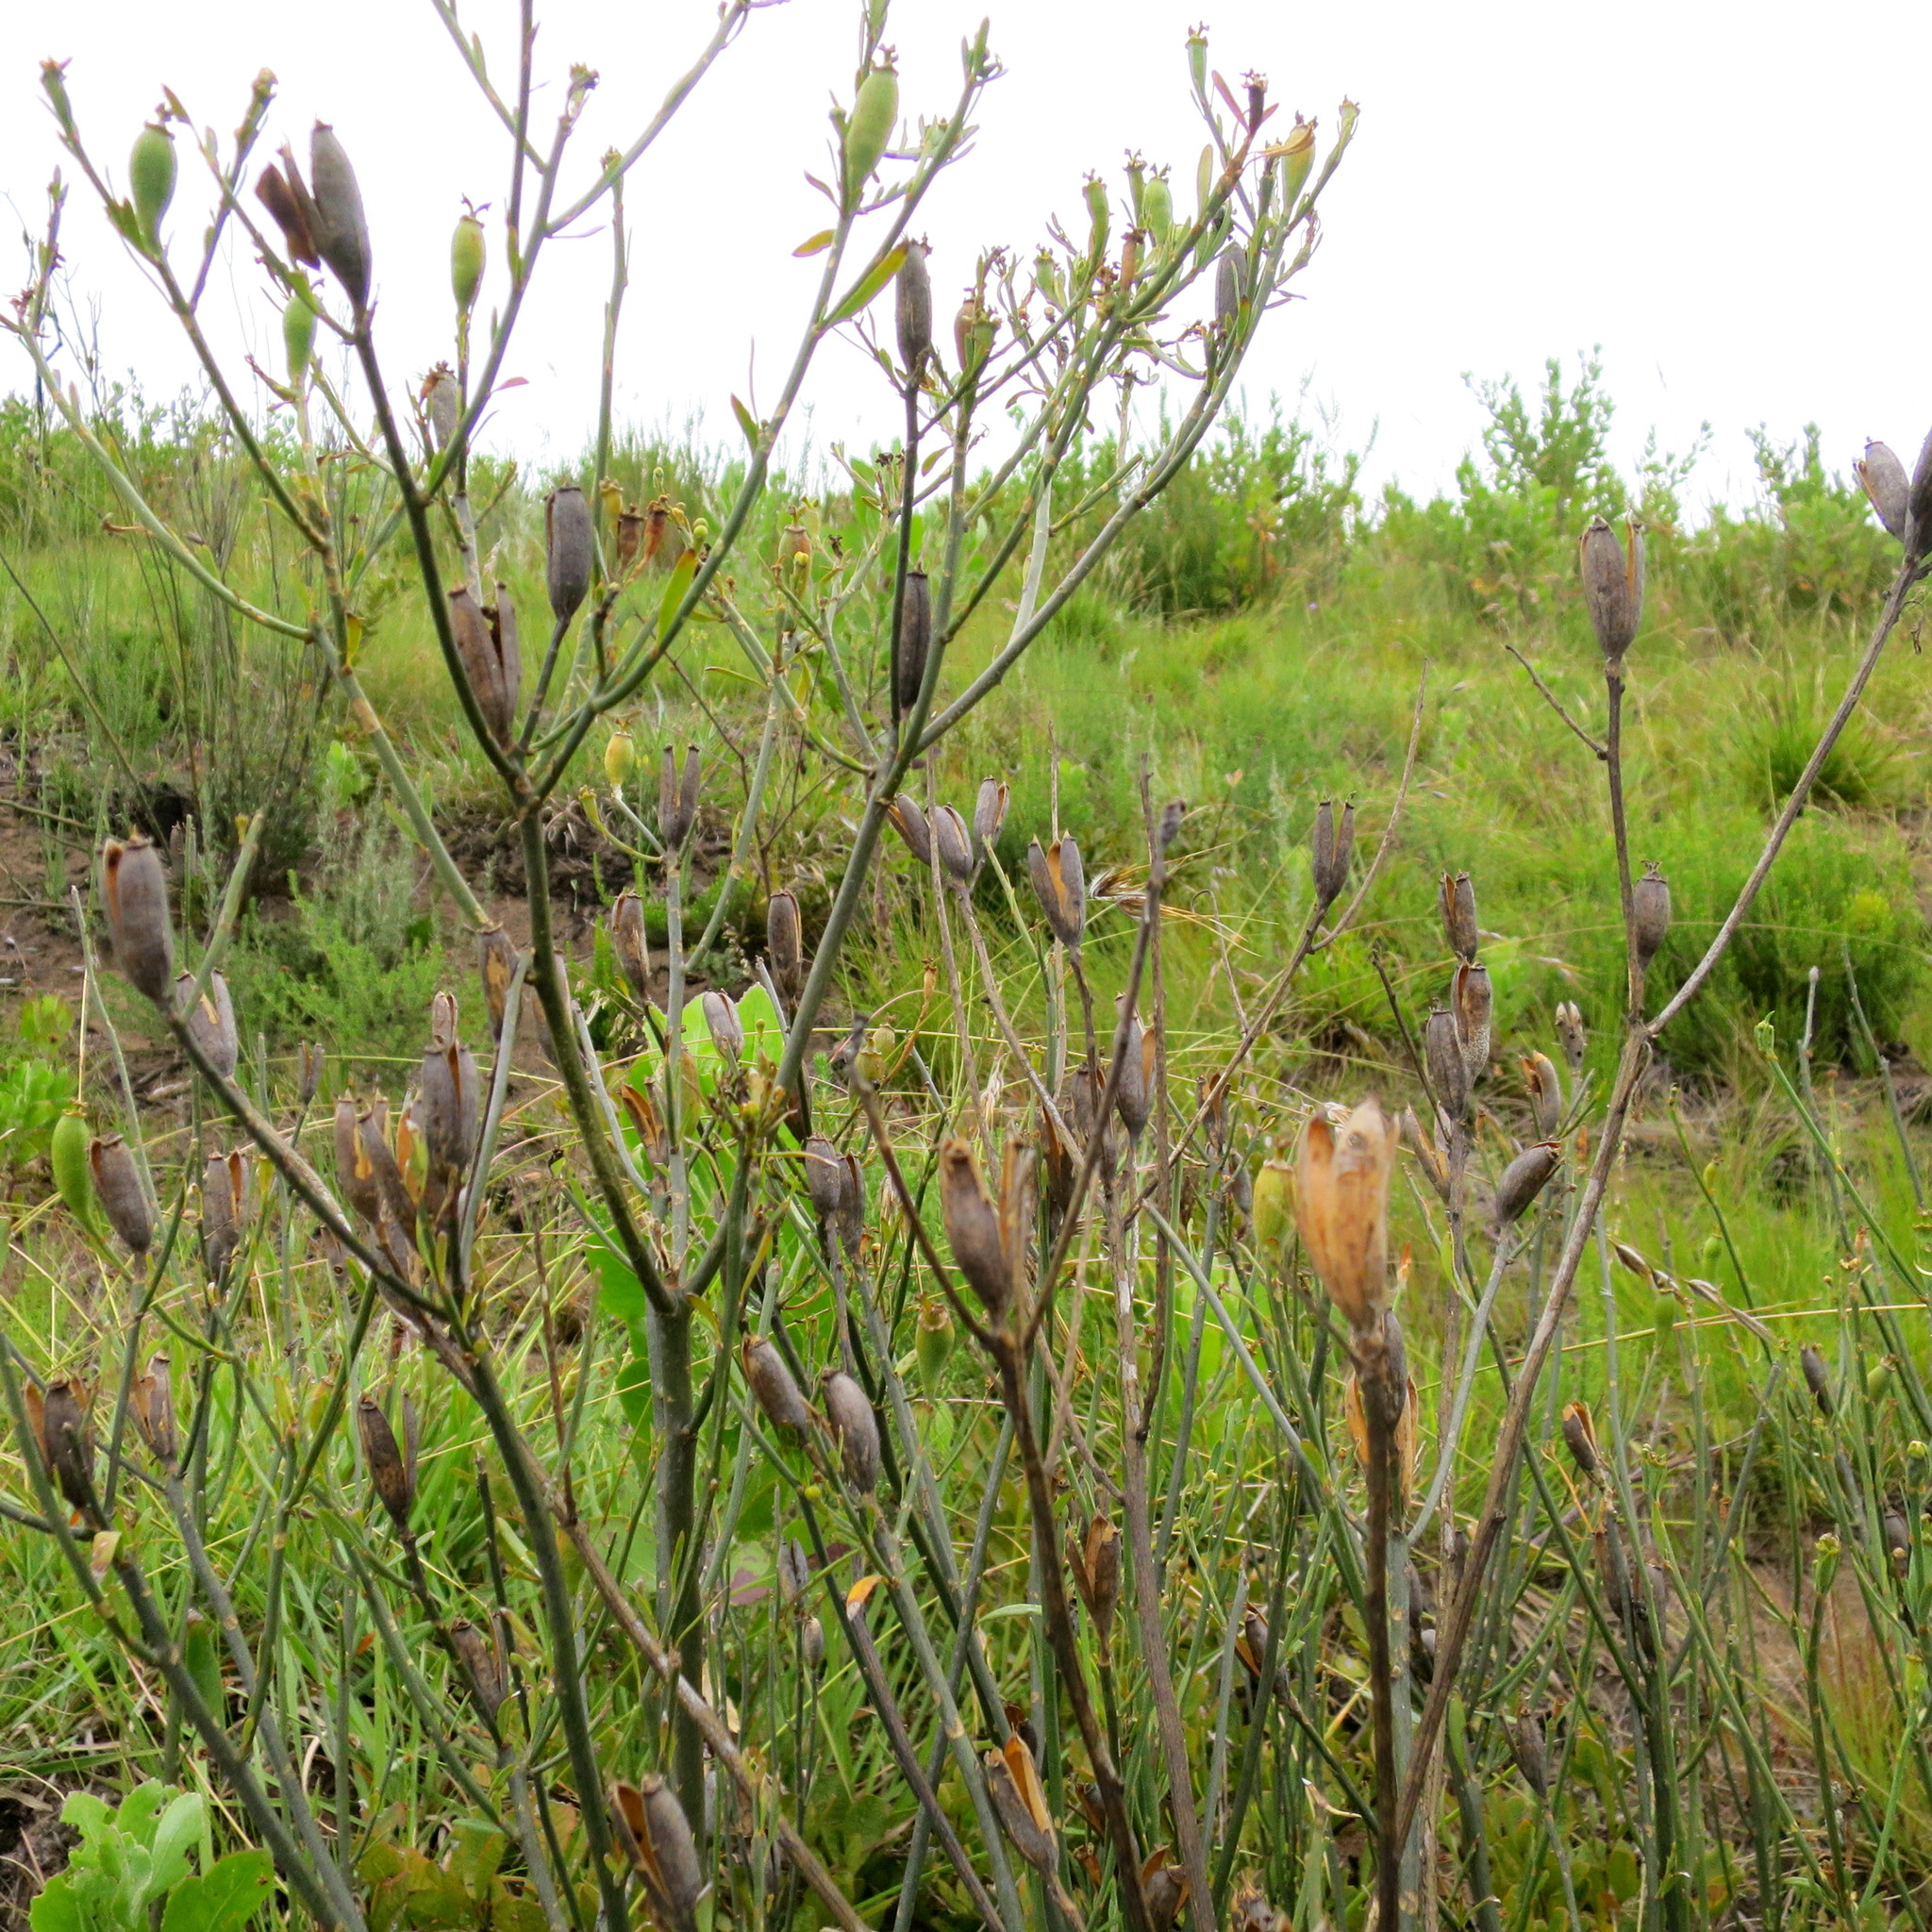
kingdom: Plantae
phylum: Tracheophyta
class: Magnoliopsida
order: Solanales
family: Montiniaceae
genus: Montinia
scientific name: Montinia caryophyllacea
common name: Wild clove-bush
